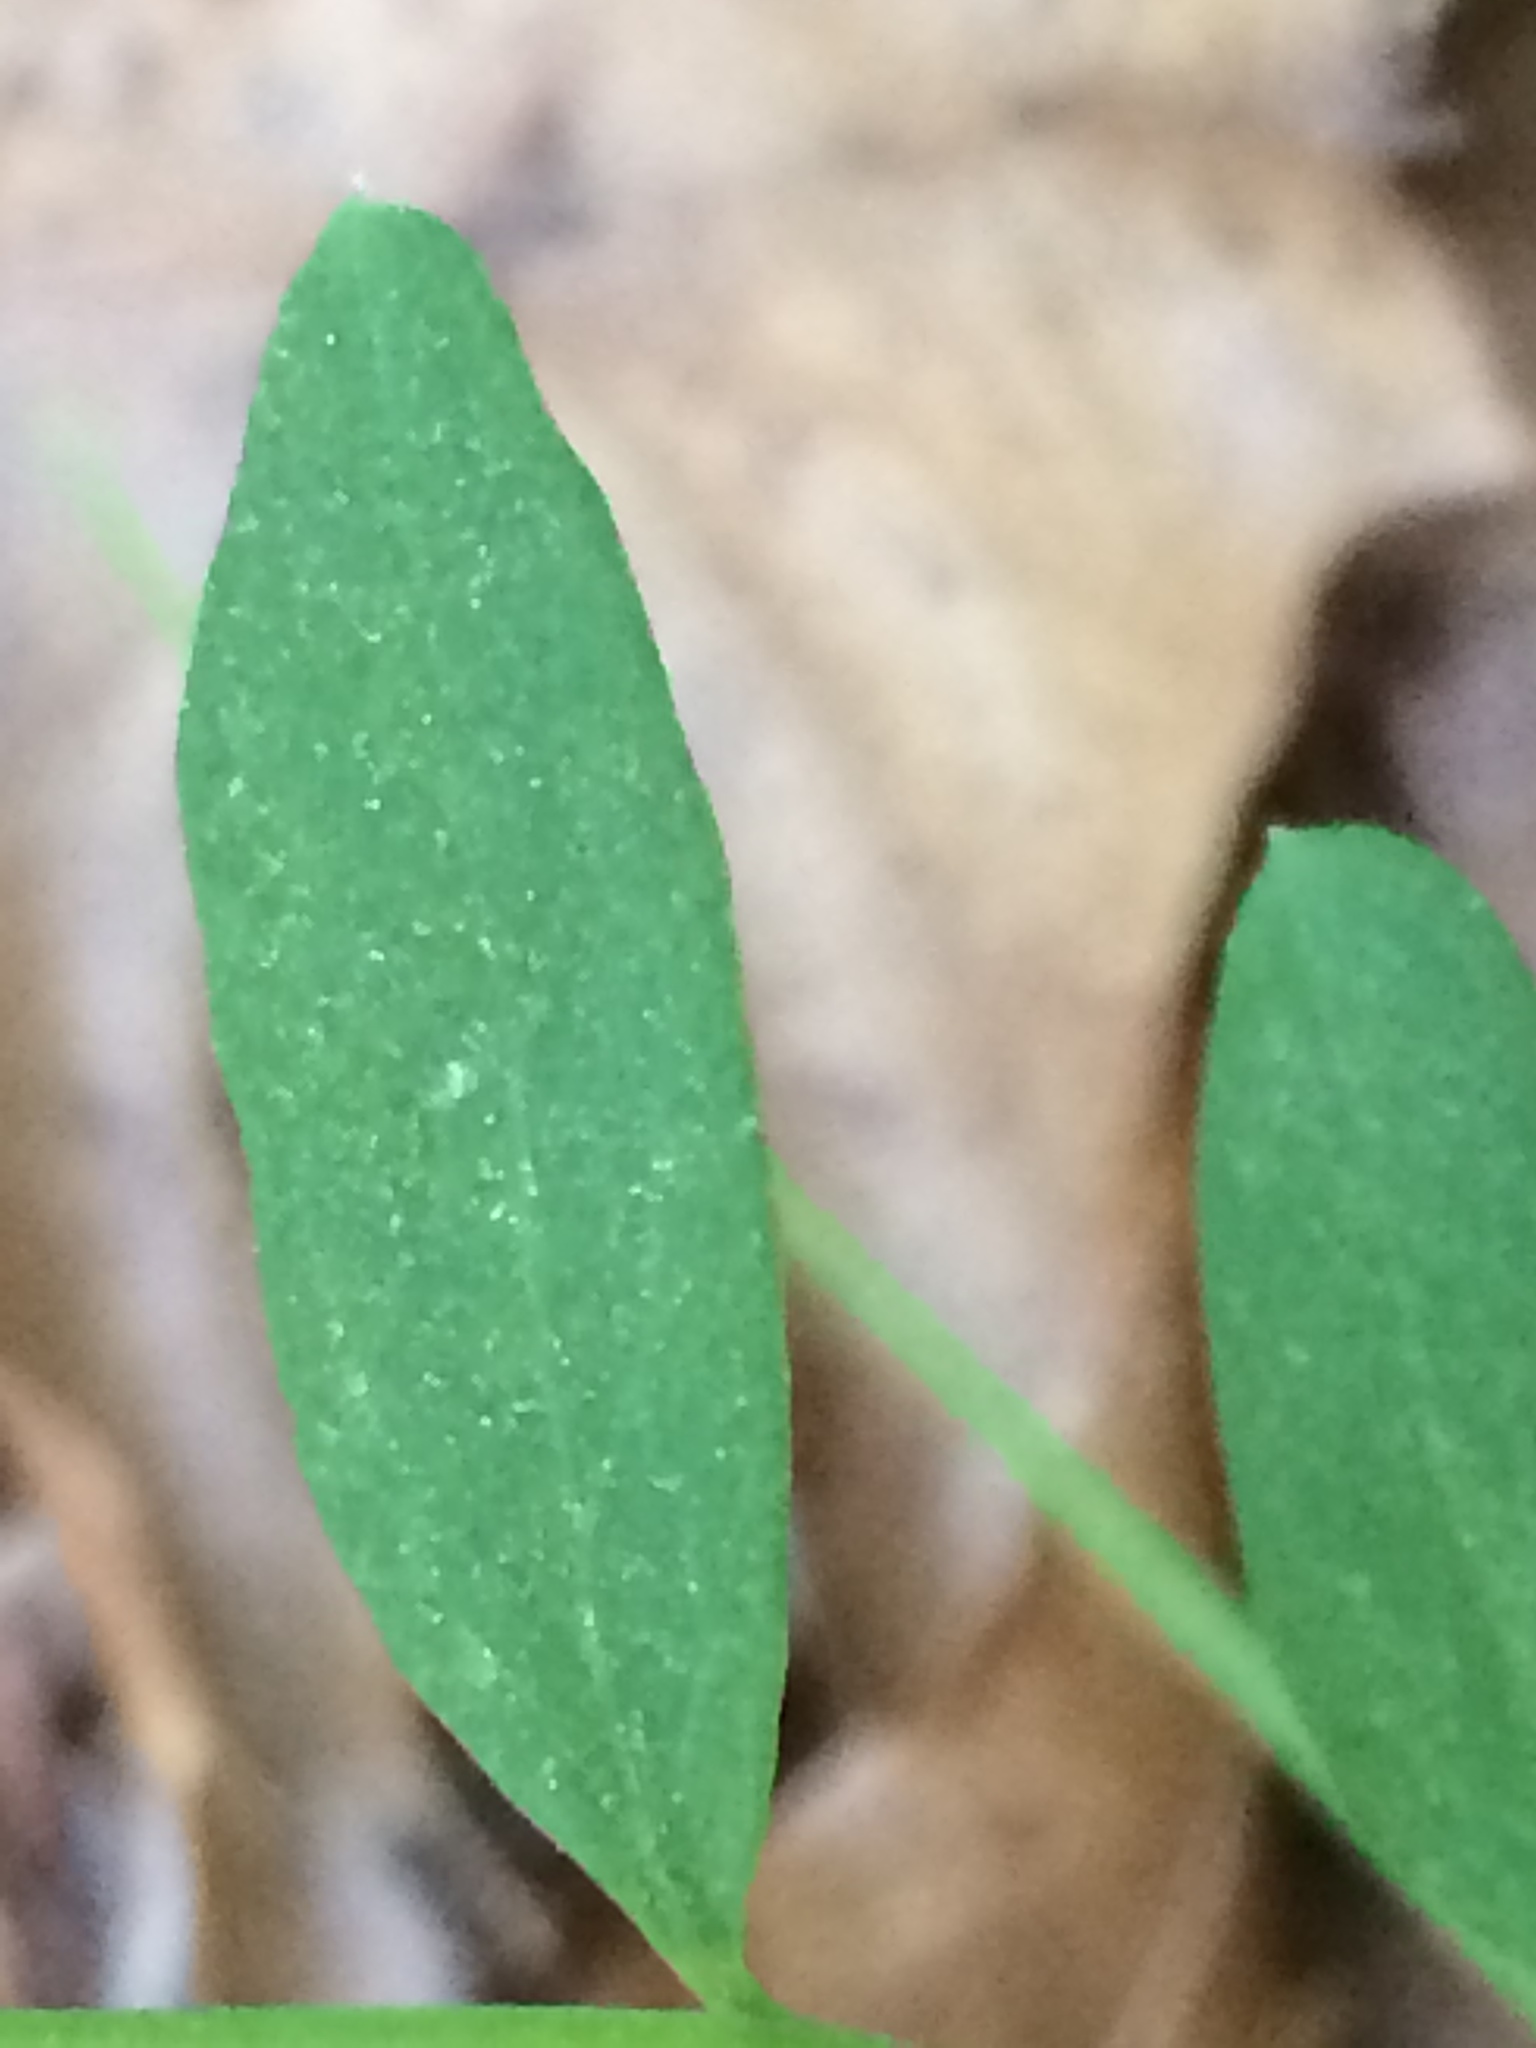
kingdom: Plantae
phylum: Tracheophyta
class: Magnoliopsida
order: Santalales
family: Comandraceae
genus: Comandra
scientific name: Comandra umbellata
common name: Bastard toadflax
